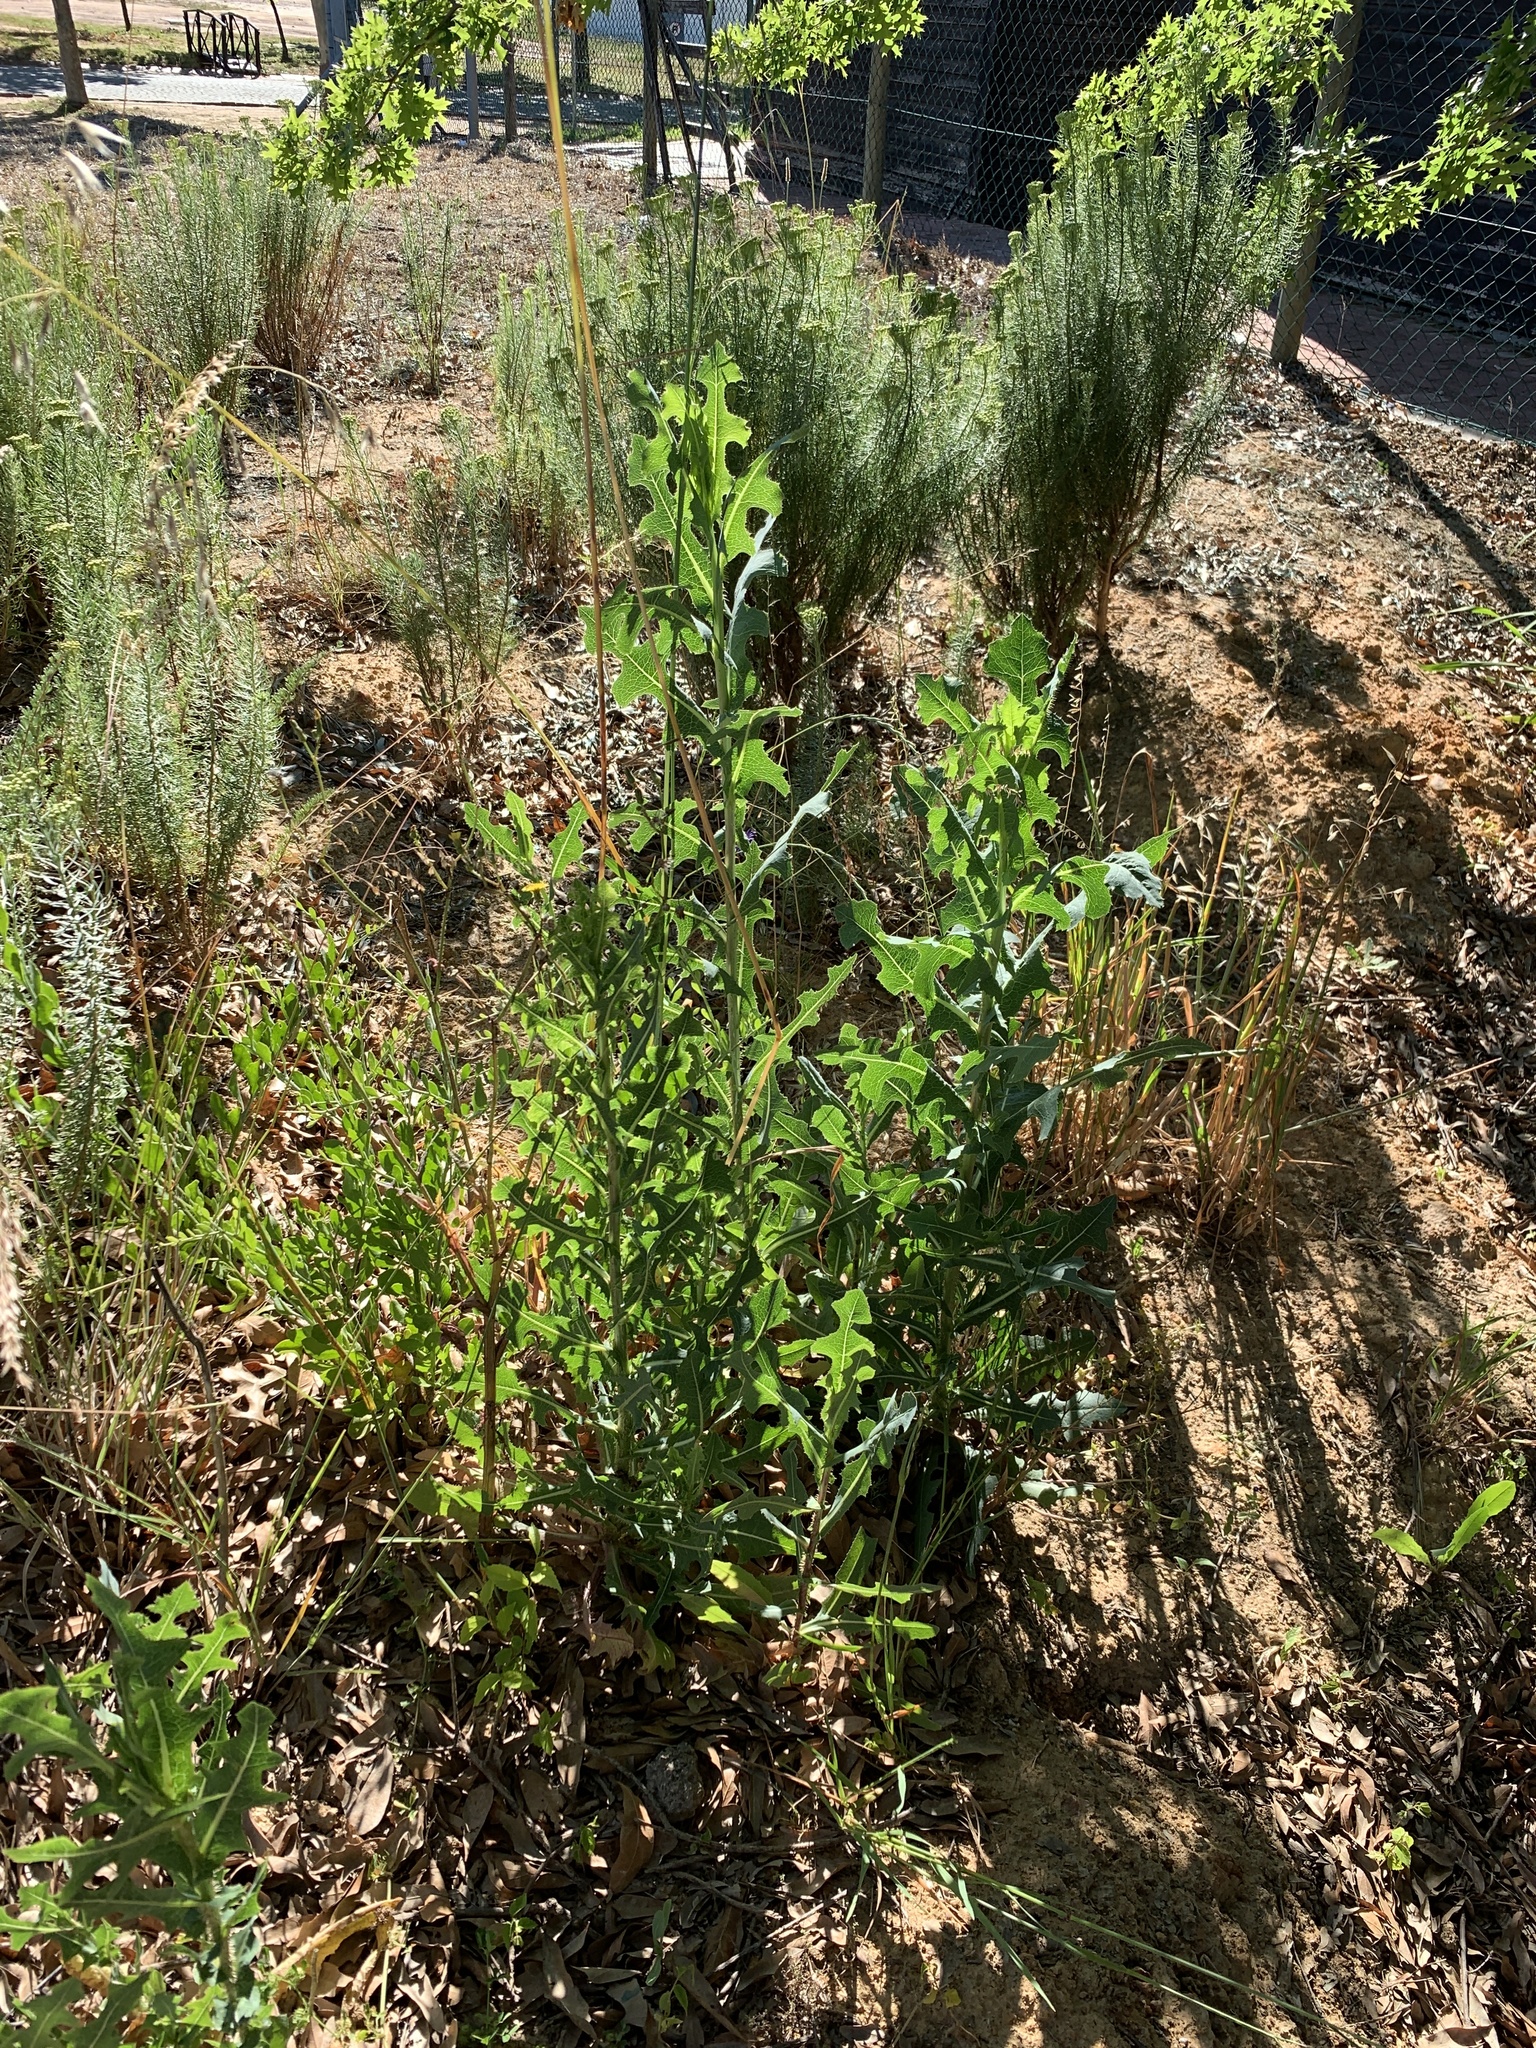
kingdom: Plantae
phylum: Tracheophyta
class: Magnoliopsida
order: Asterales
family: Asteraceae
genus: Lactuca
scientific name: Lactuca serriola
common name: Prickly lettuce
